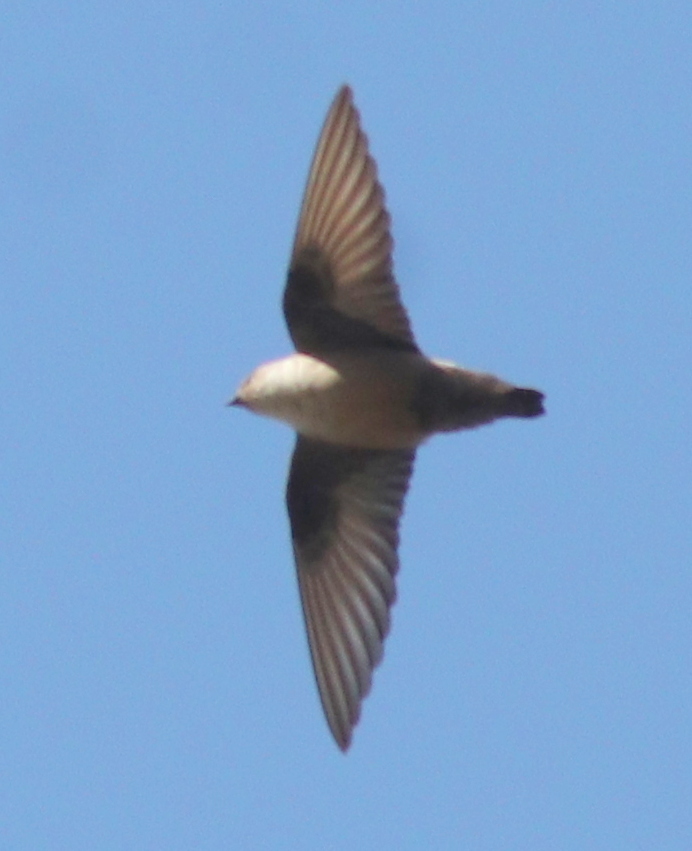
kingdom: Animalia
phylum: Chordata
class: Aves
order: Passeriformes
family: Hirundinidae
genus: Ptyonoprogne
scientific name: Ptyonoprogne rupestris
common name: Eurasian crag martin
